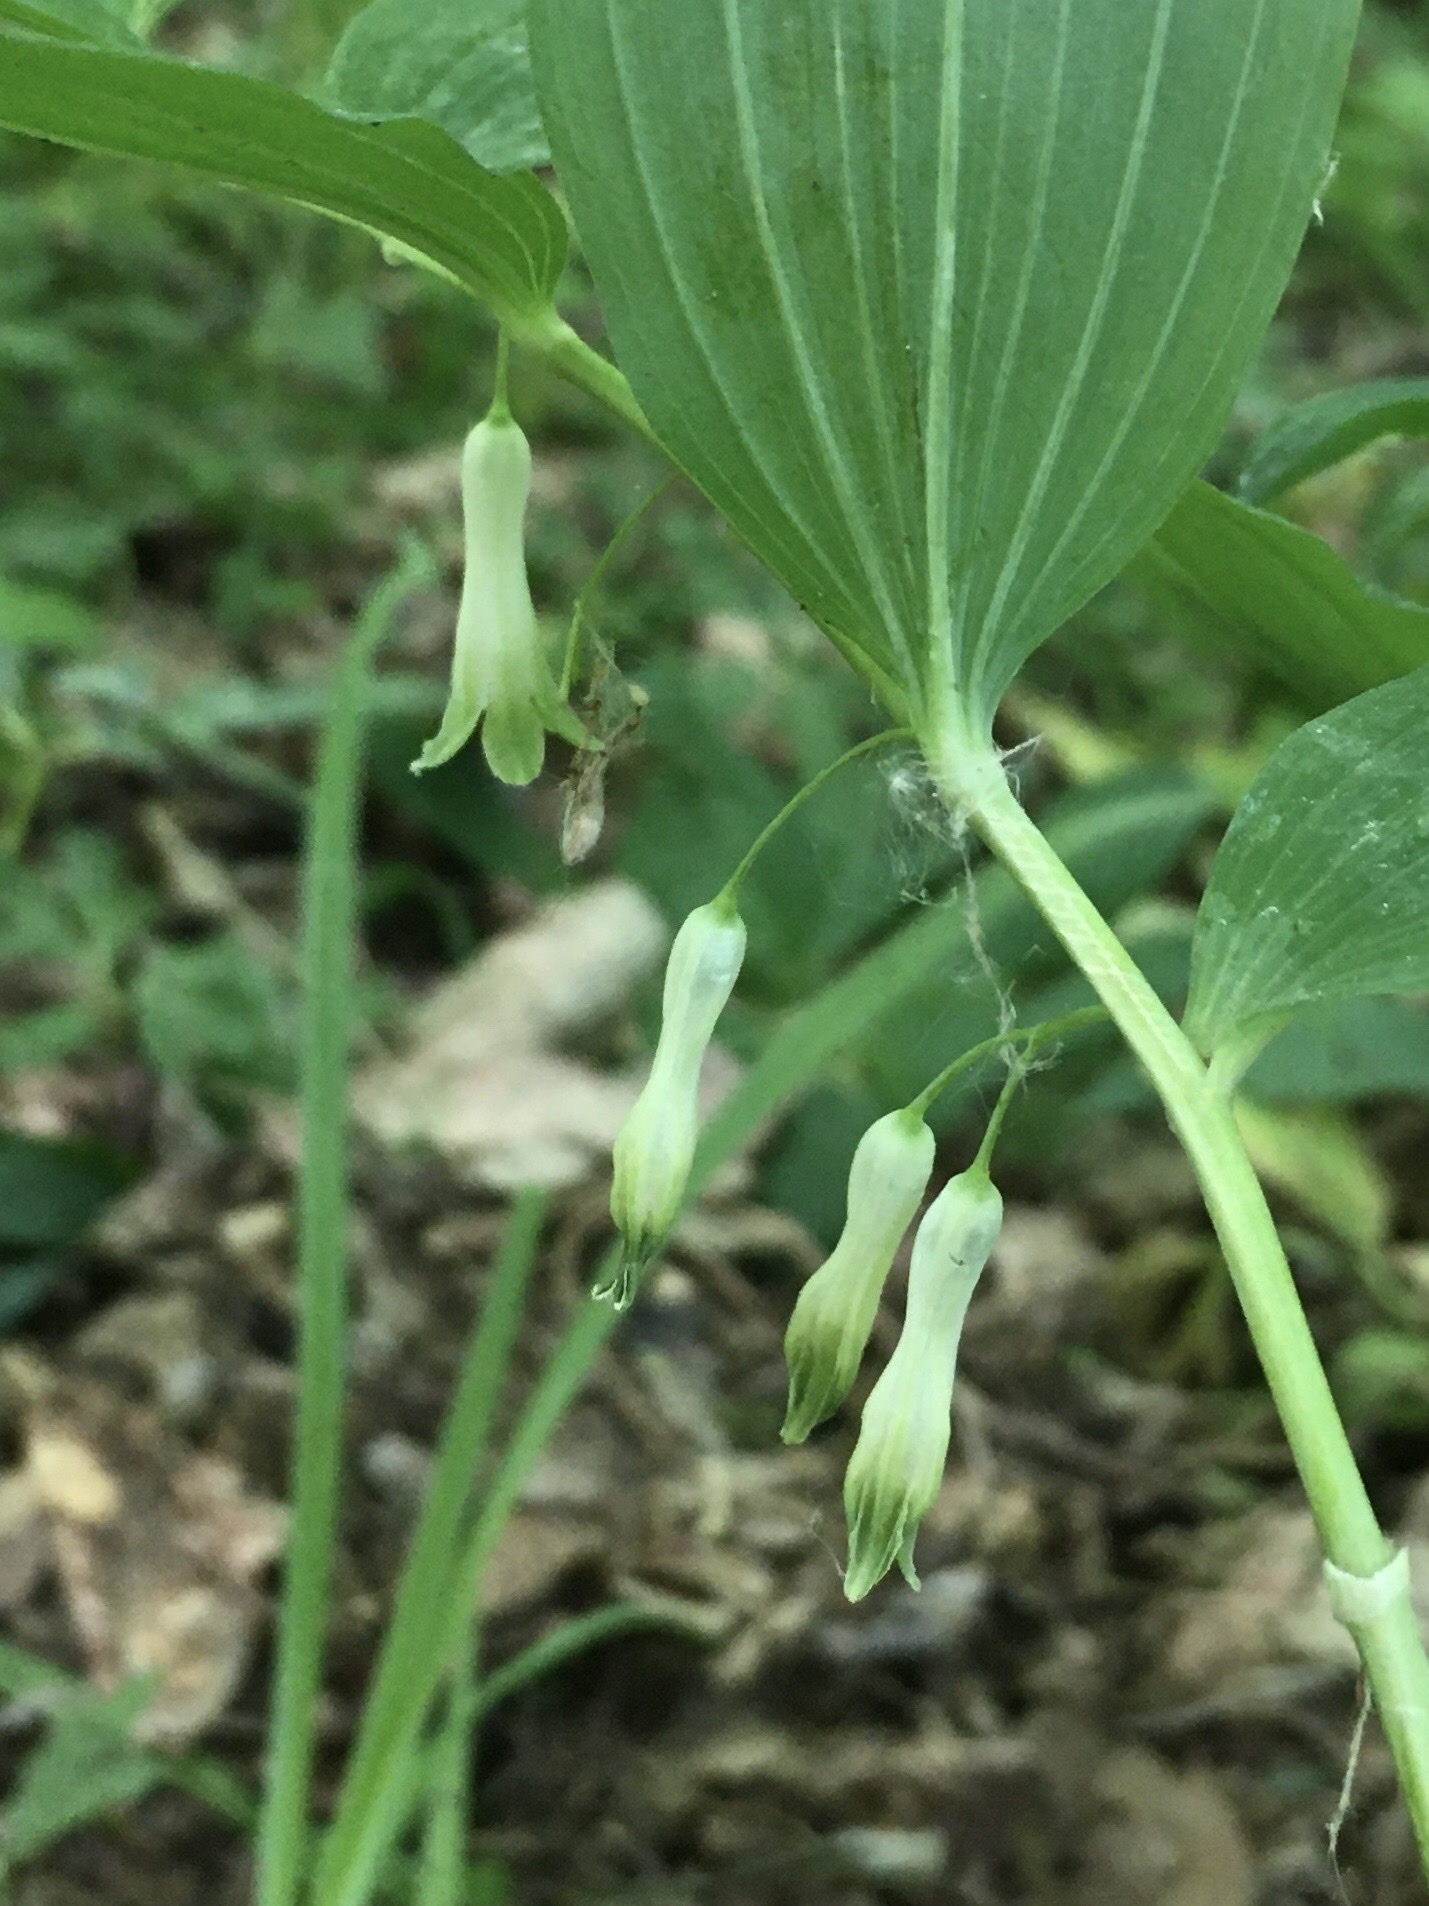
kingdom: Plantae
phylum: Tracheophyta
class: Liliopsida
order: Asparagales
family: Asparagaceae
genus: Polygonatum
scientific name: Polygonatum odoratum
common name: Angular solomon's-seal
